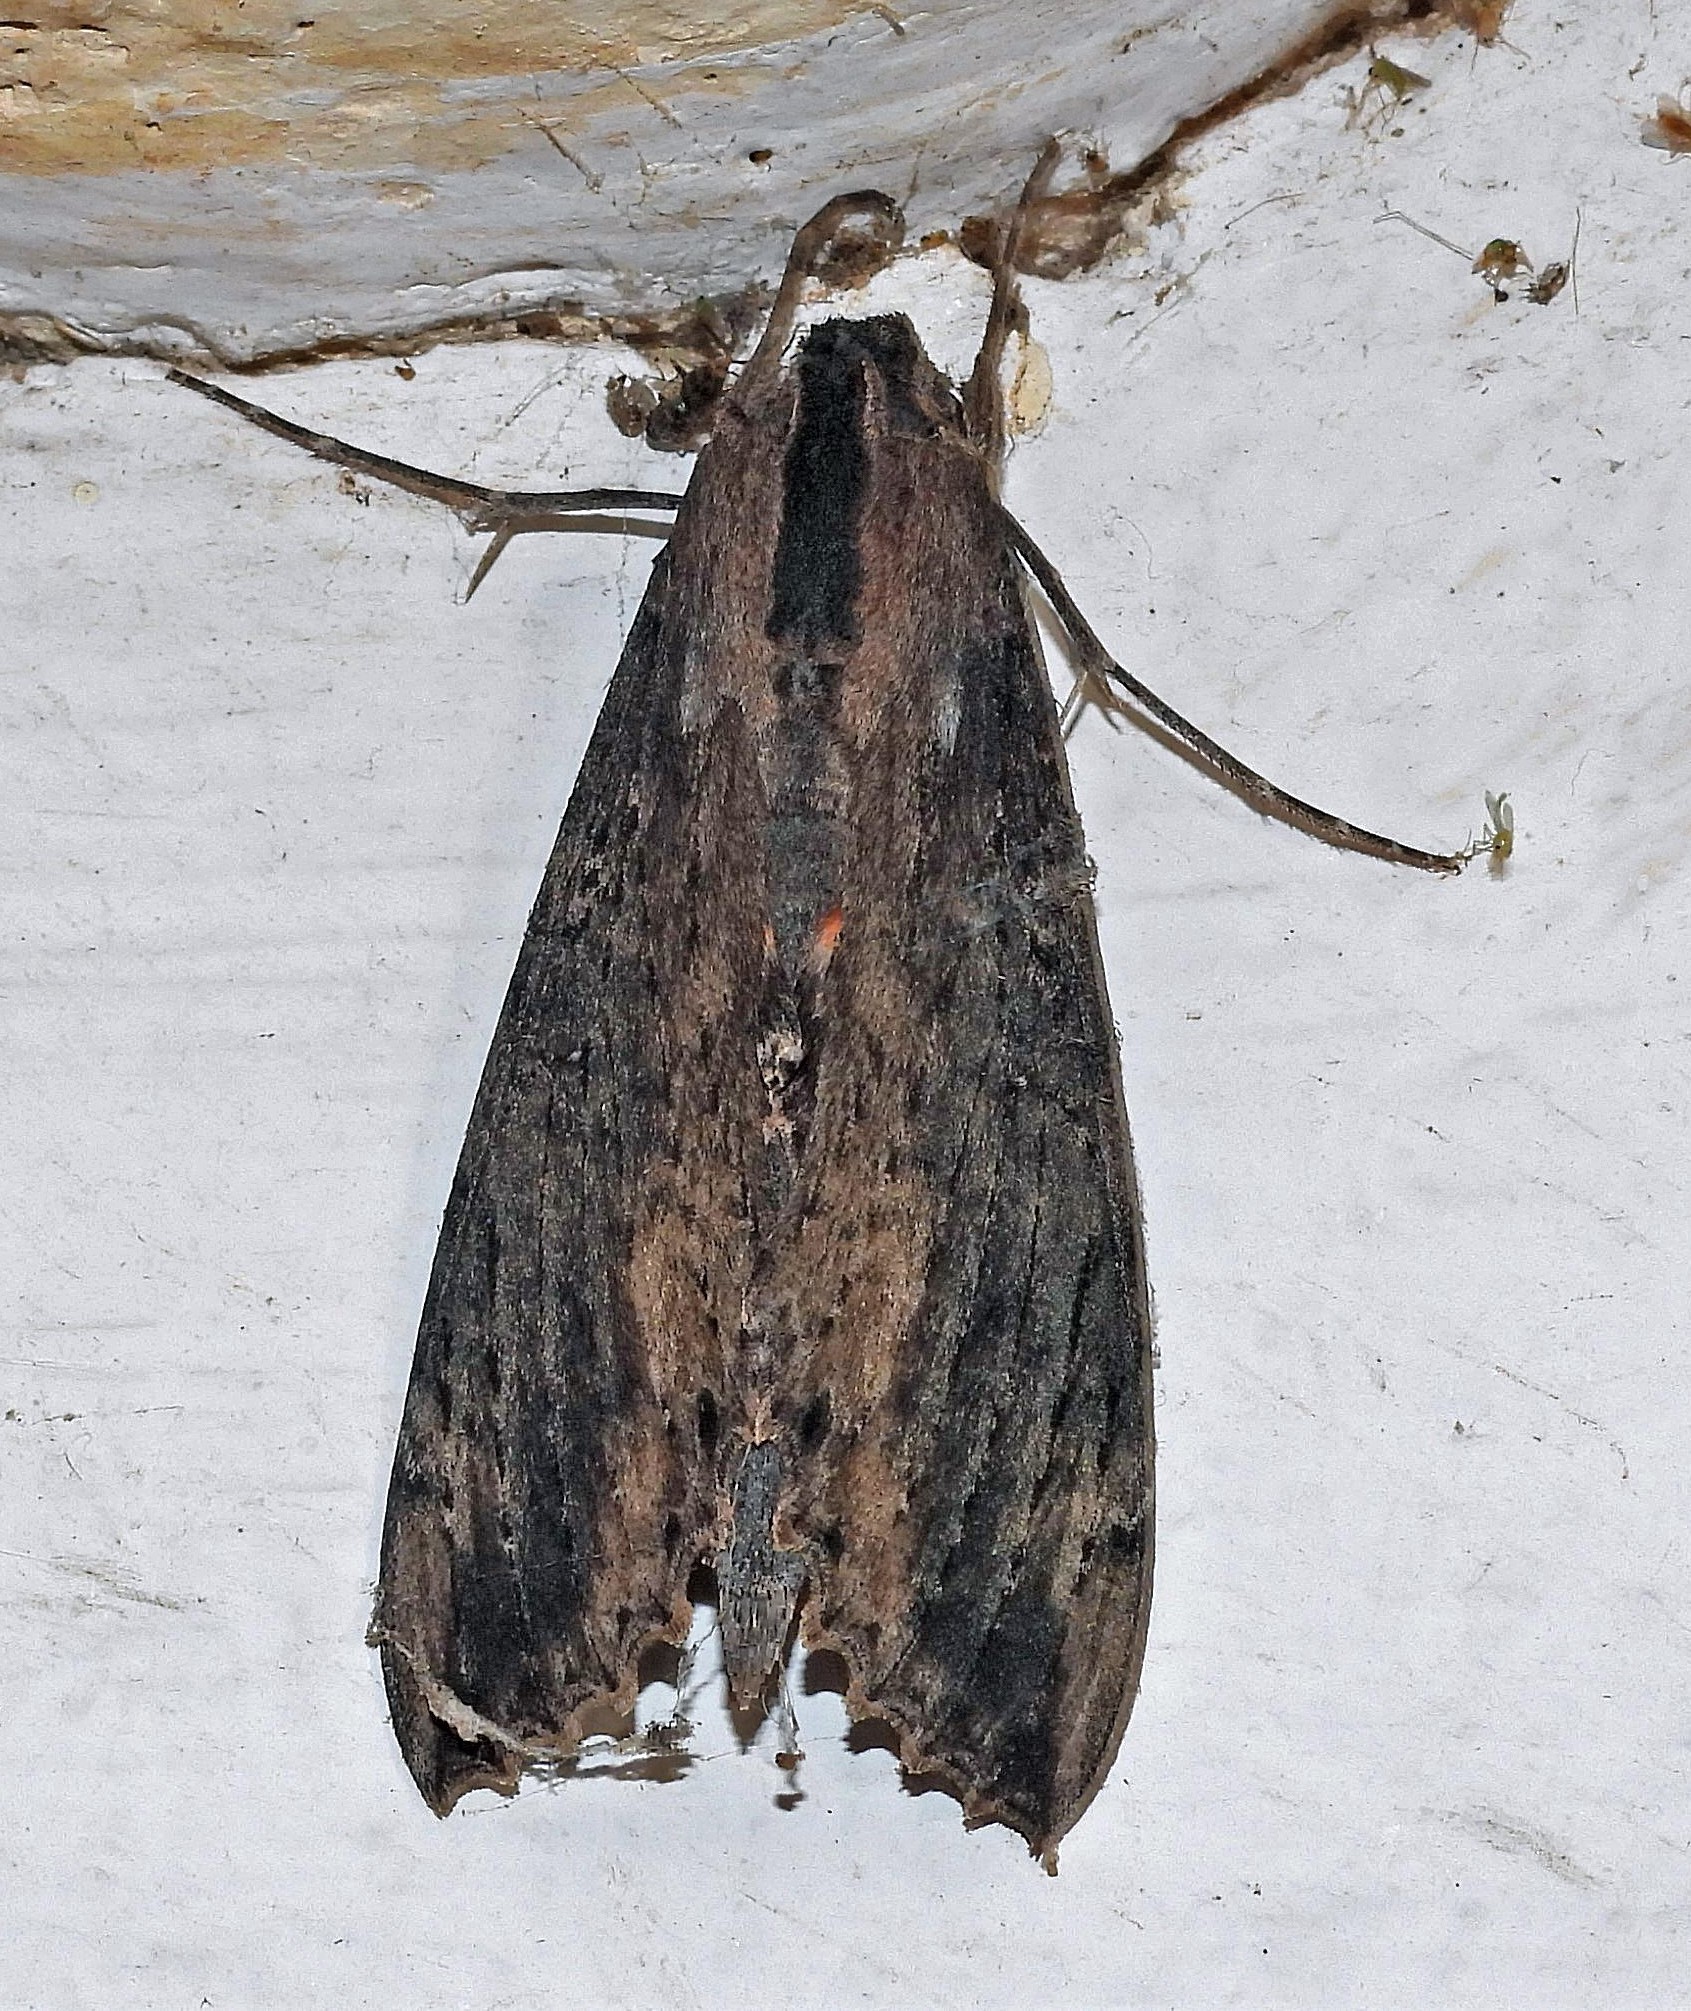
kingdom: Animalia
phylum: Arthropoda
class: Insecta
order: Lepidoptera
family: Sphingidae
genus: Erinnyis
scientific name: Erinnyis crameri
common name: Cramer's sphinx
